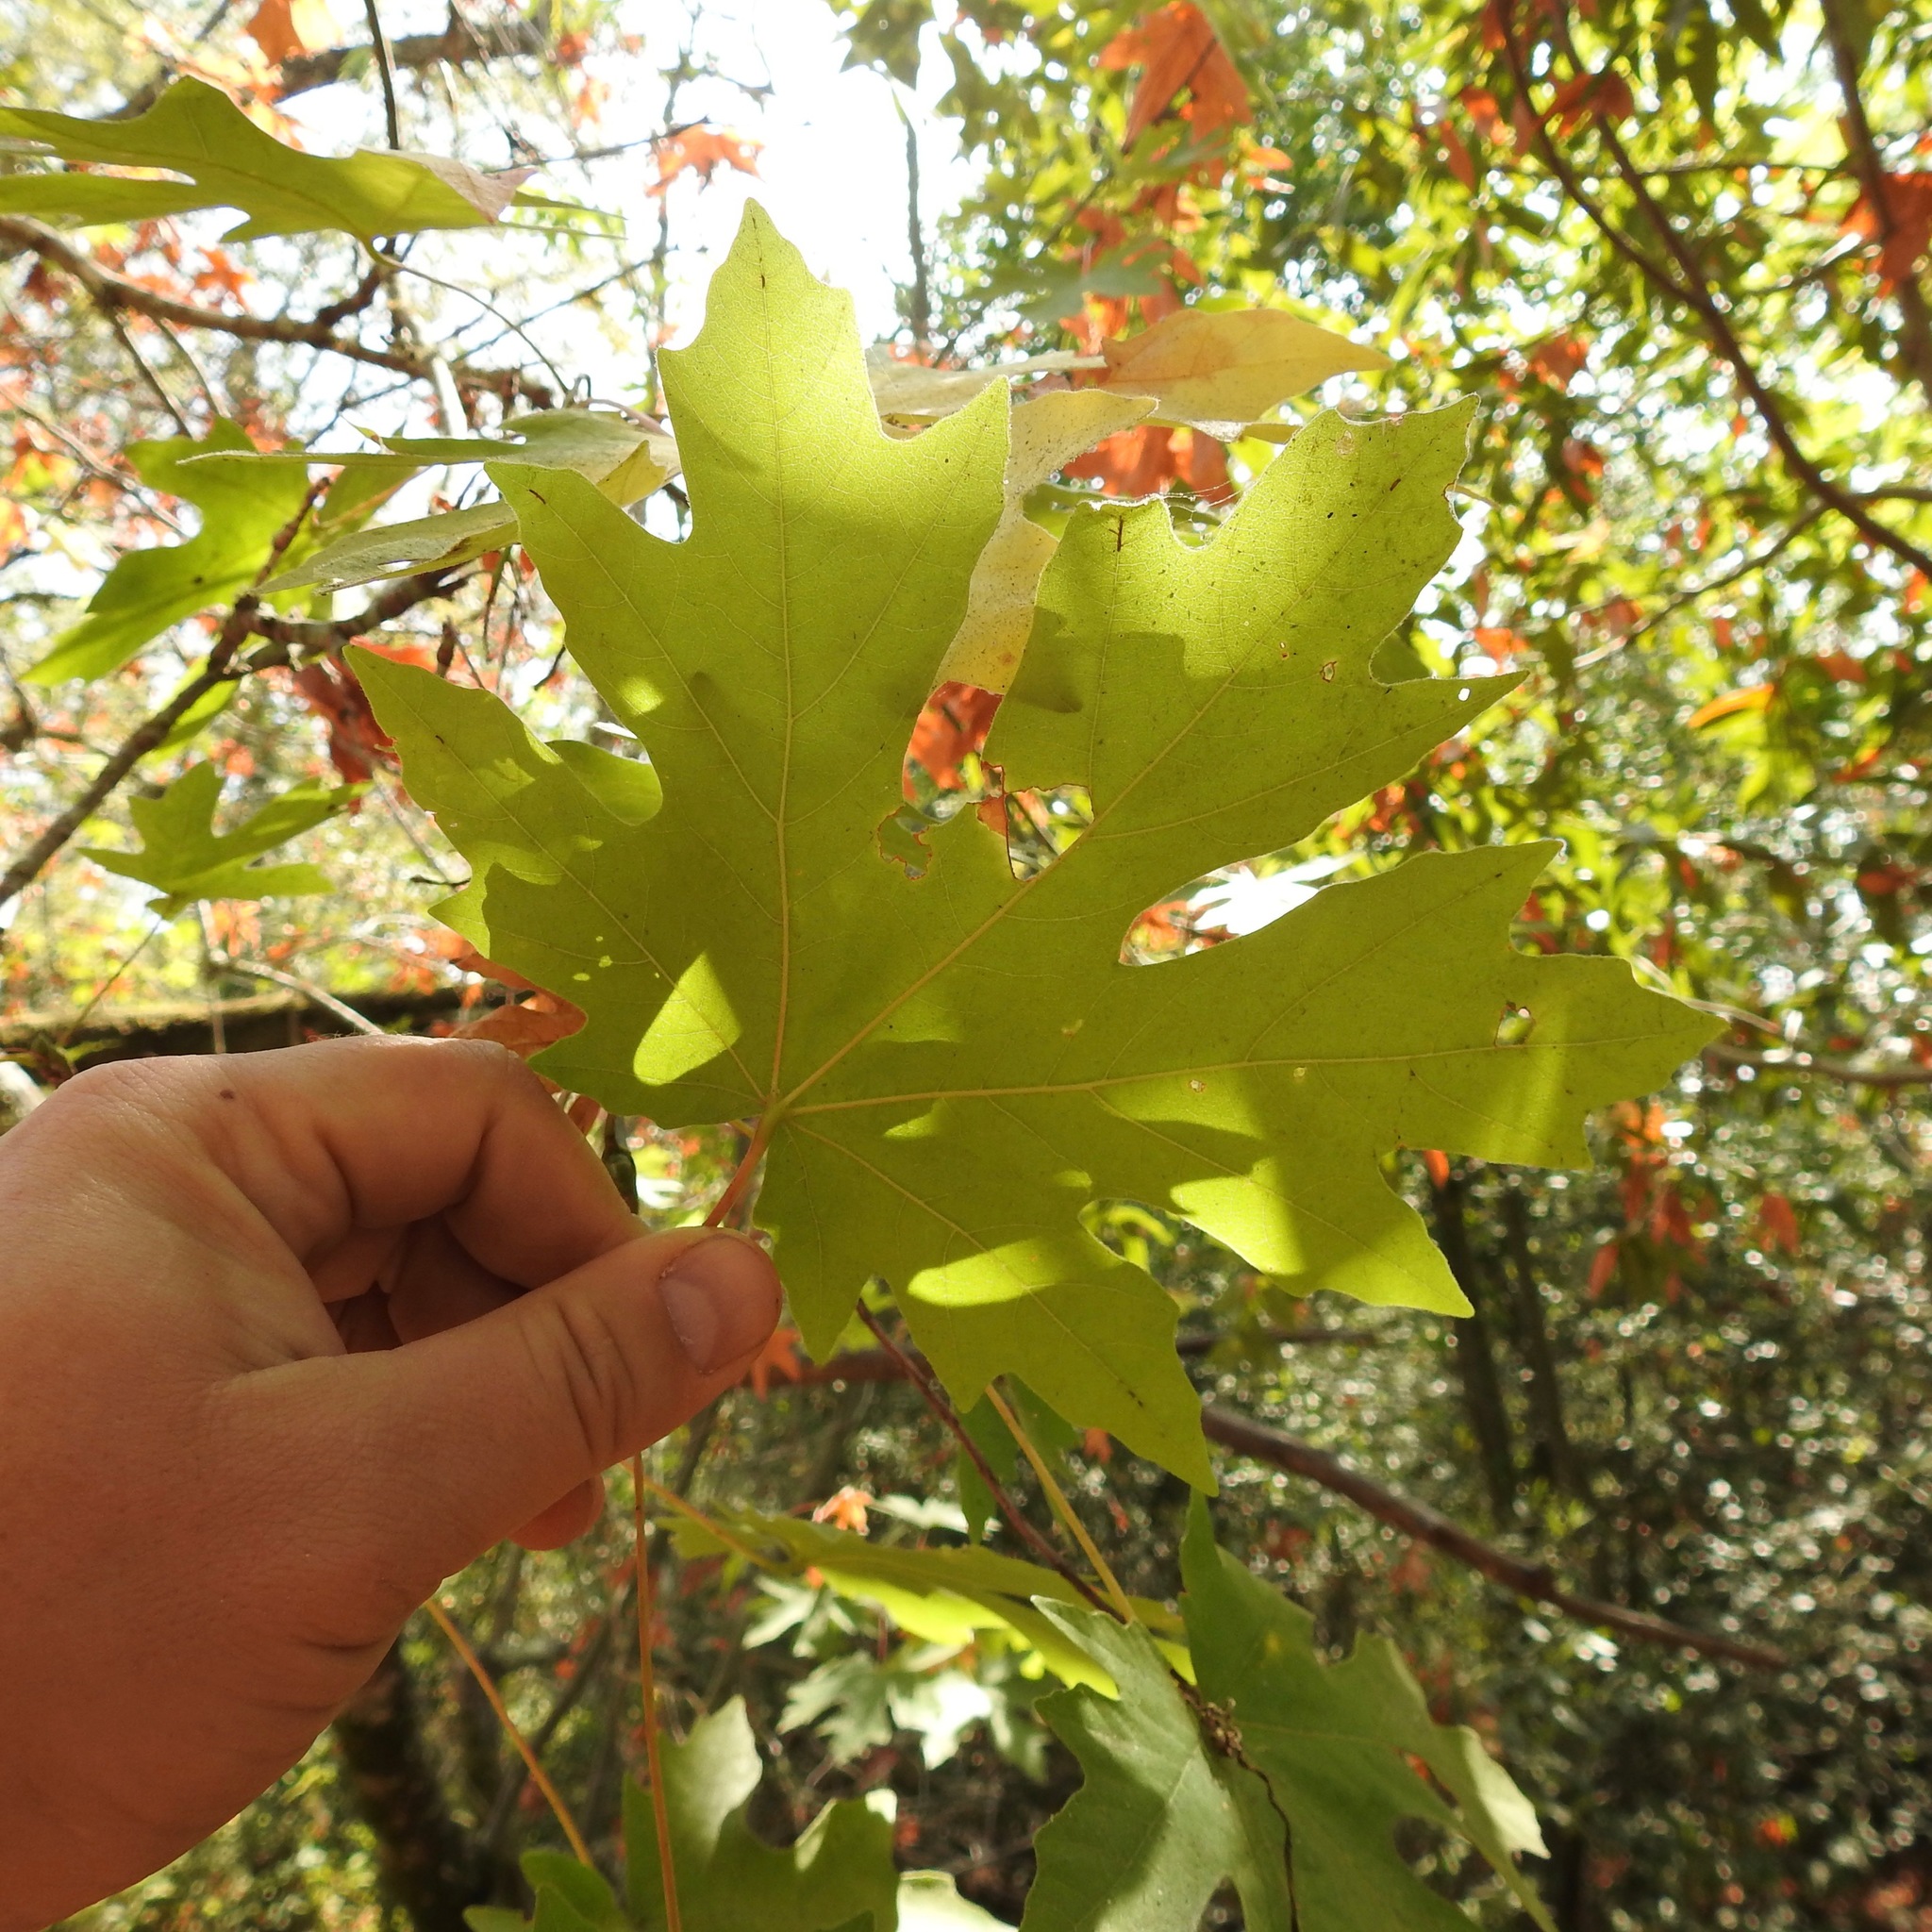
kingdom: Plantae
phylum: Tracheophyta
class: Magnoliopsida
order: Sapindales
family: Sapindaceae
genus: Acer
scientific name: Acer macrophyllum
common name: Oregon maple
